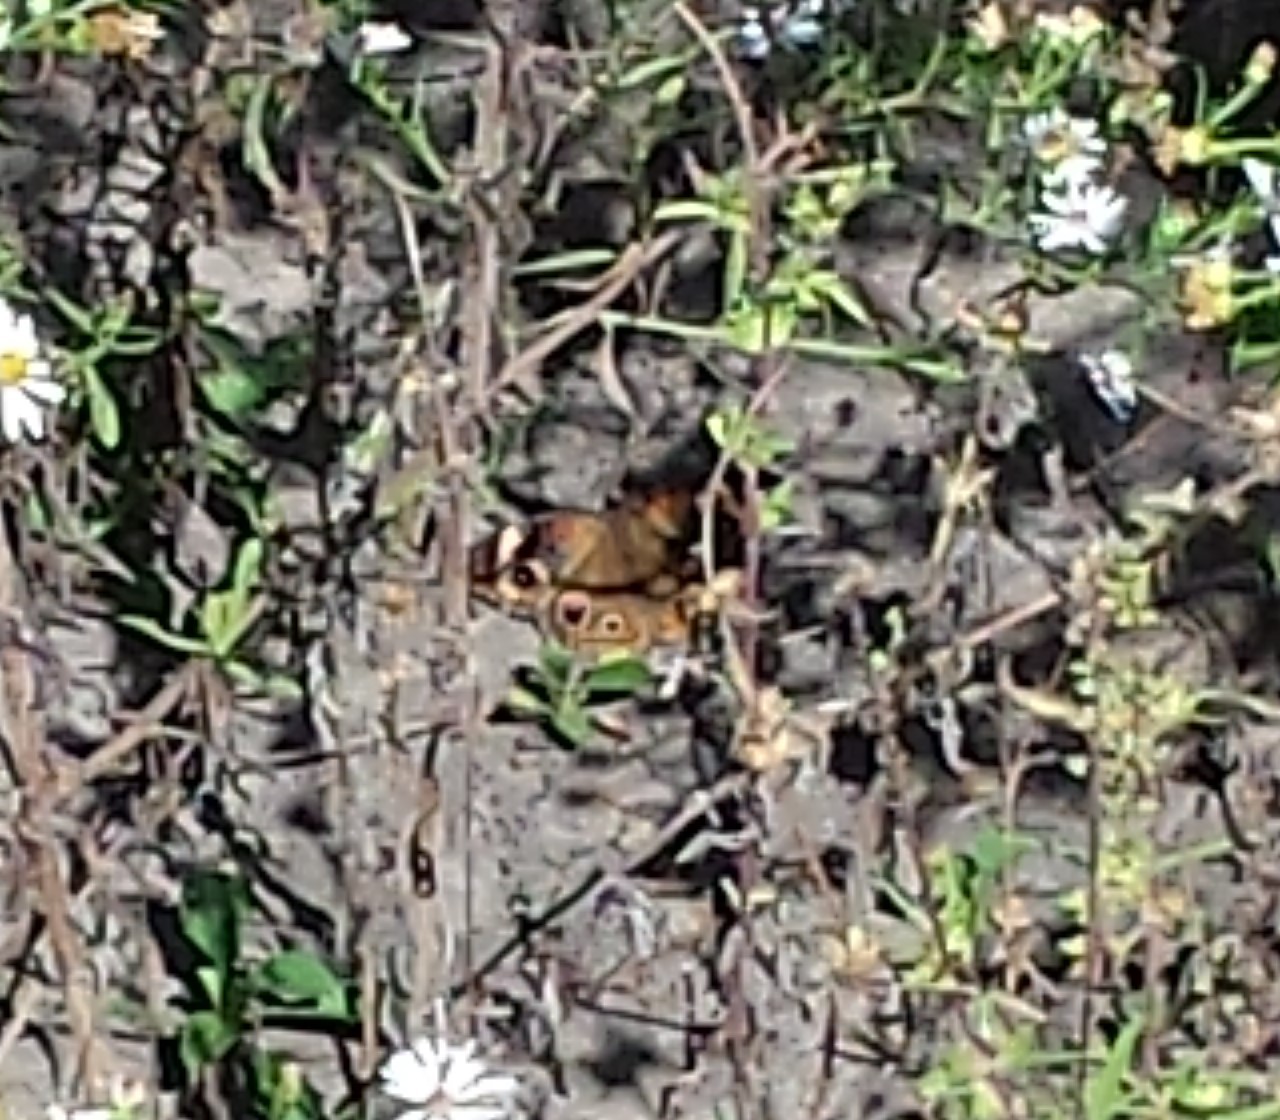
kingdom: Animalia
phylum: Arthropoda
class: Insecta
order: Lepidoptera
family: Nymphalidae
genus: Junonia
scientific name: Junonia coenia
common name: Common buckeye
